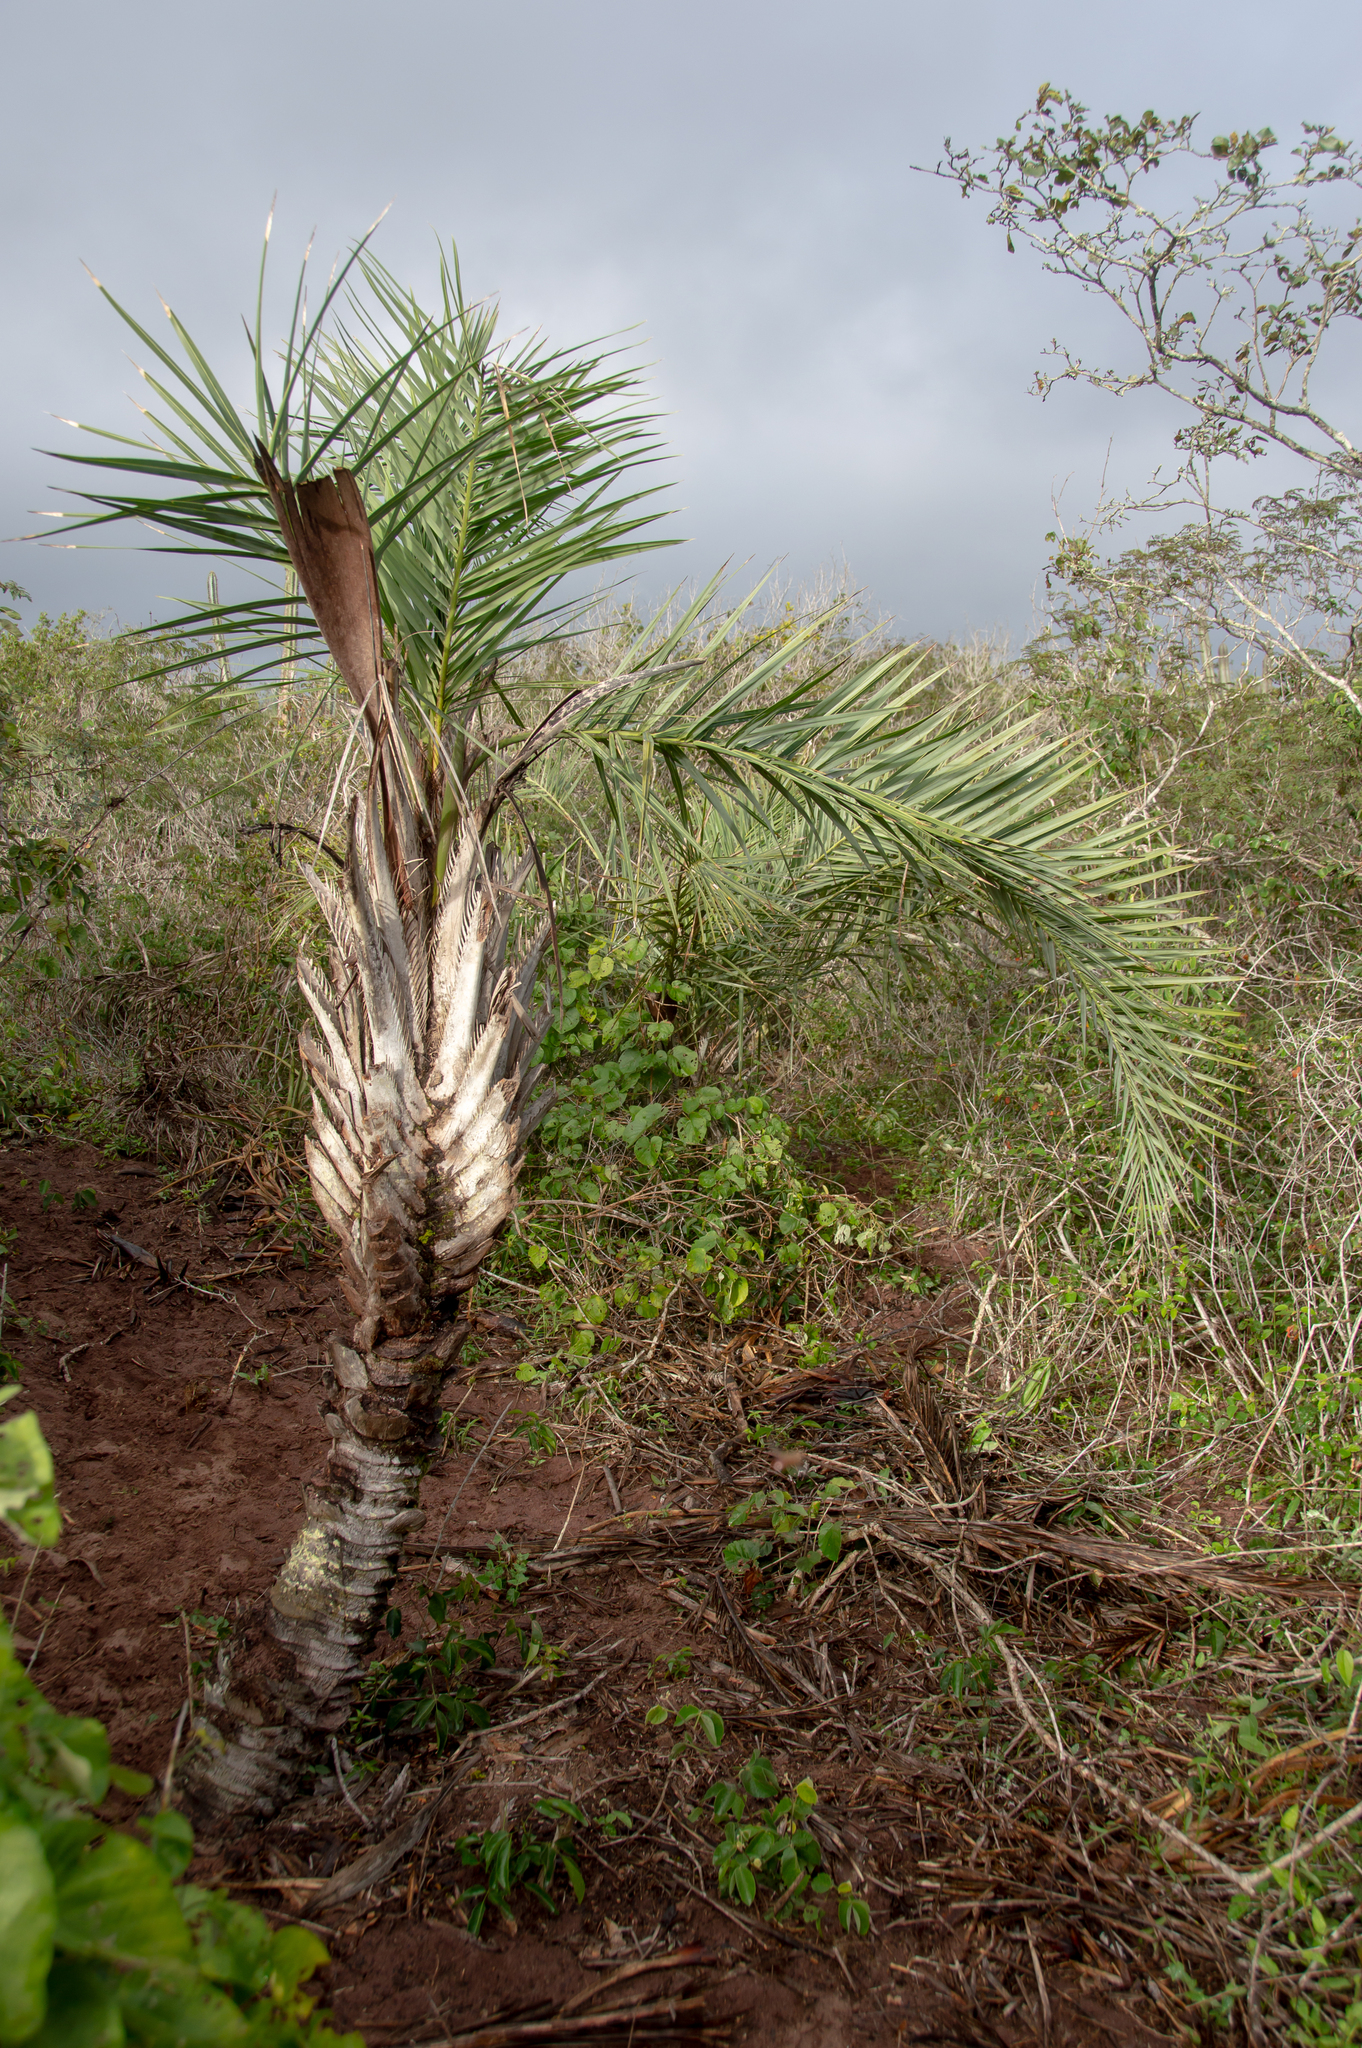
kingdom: Plantae
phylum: Tracheophyta
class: Liliopsida
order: Arecales
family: Arecaceae
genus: Syagrus
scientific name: Syagrus coronata
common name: Licuri palm
